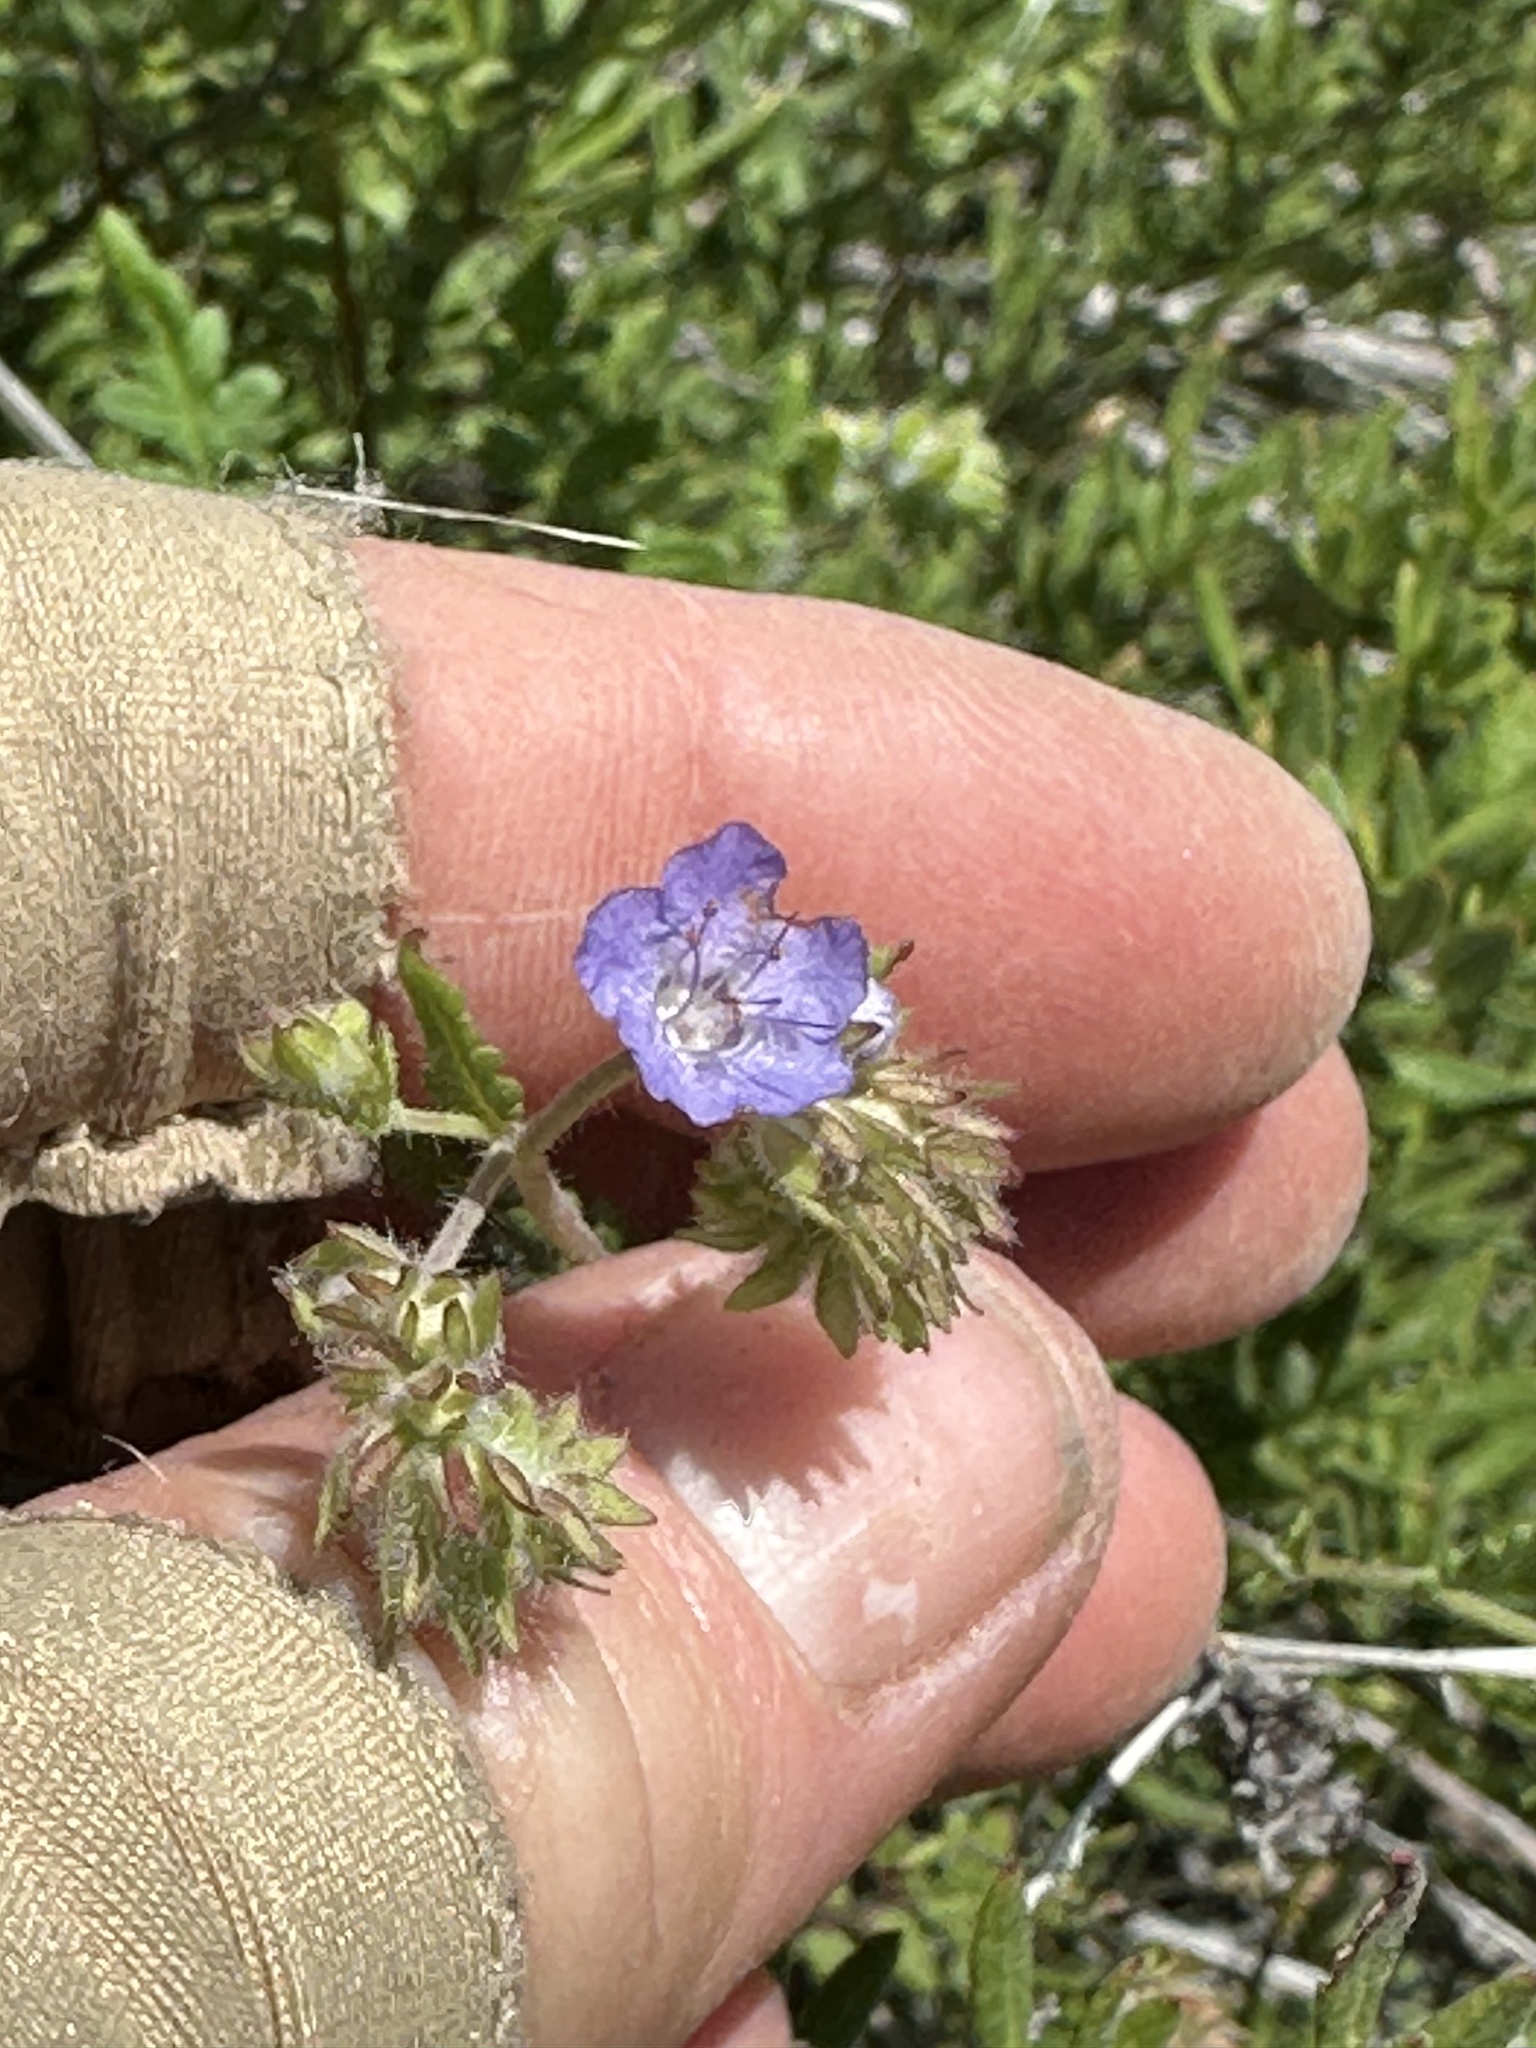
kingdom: Plantae
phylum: Tracheophyta
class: Magnoliopsida
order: Boraginales
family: Hydrophyllaceae
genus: Phacelia
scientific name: Phacelia distans
